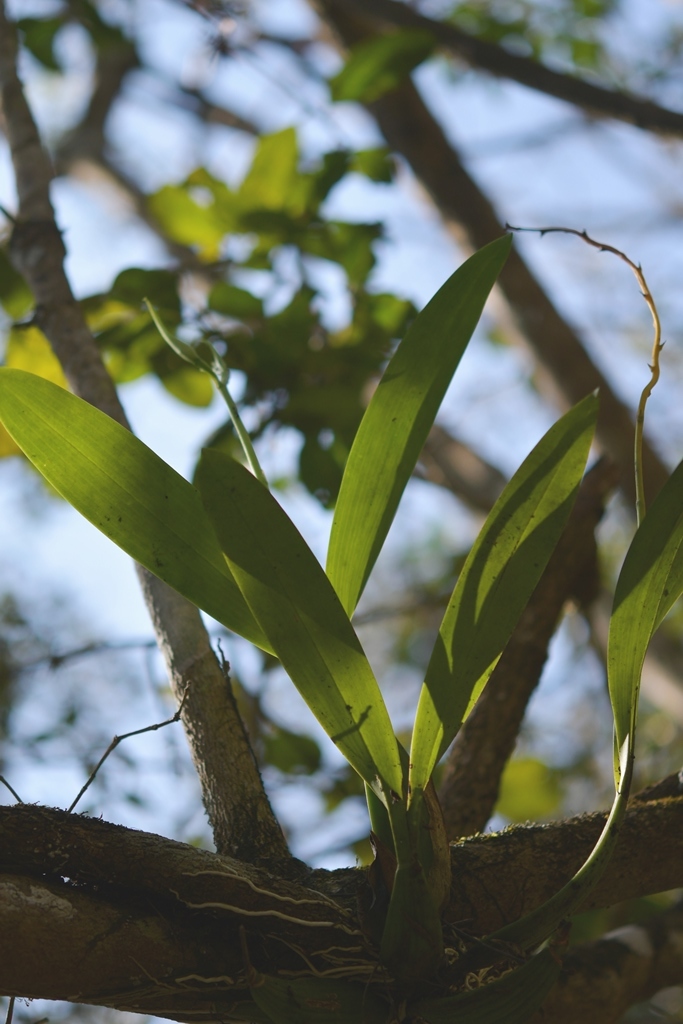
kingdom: Plantae
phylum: Tracheophyta
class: Liliopsida
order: Asparagales
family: Orchidaceae
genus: Prosthechea
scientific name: Prosthechea cochleata
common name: Clamshell orchid
